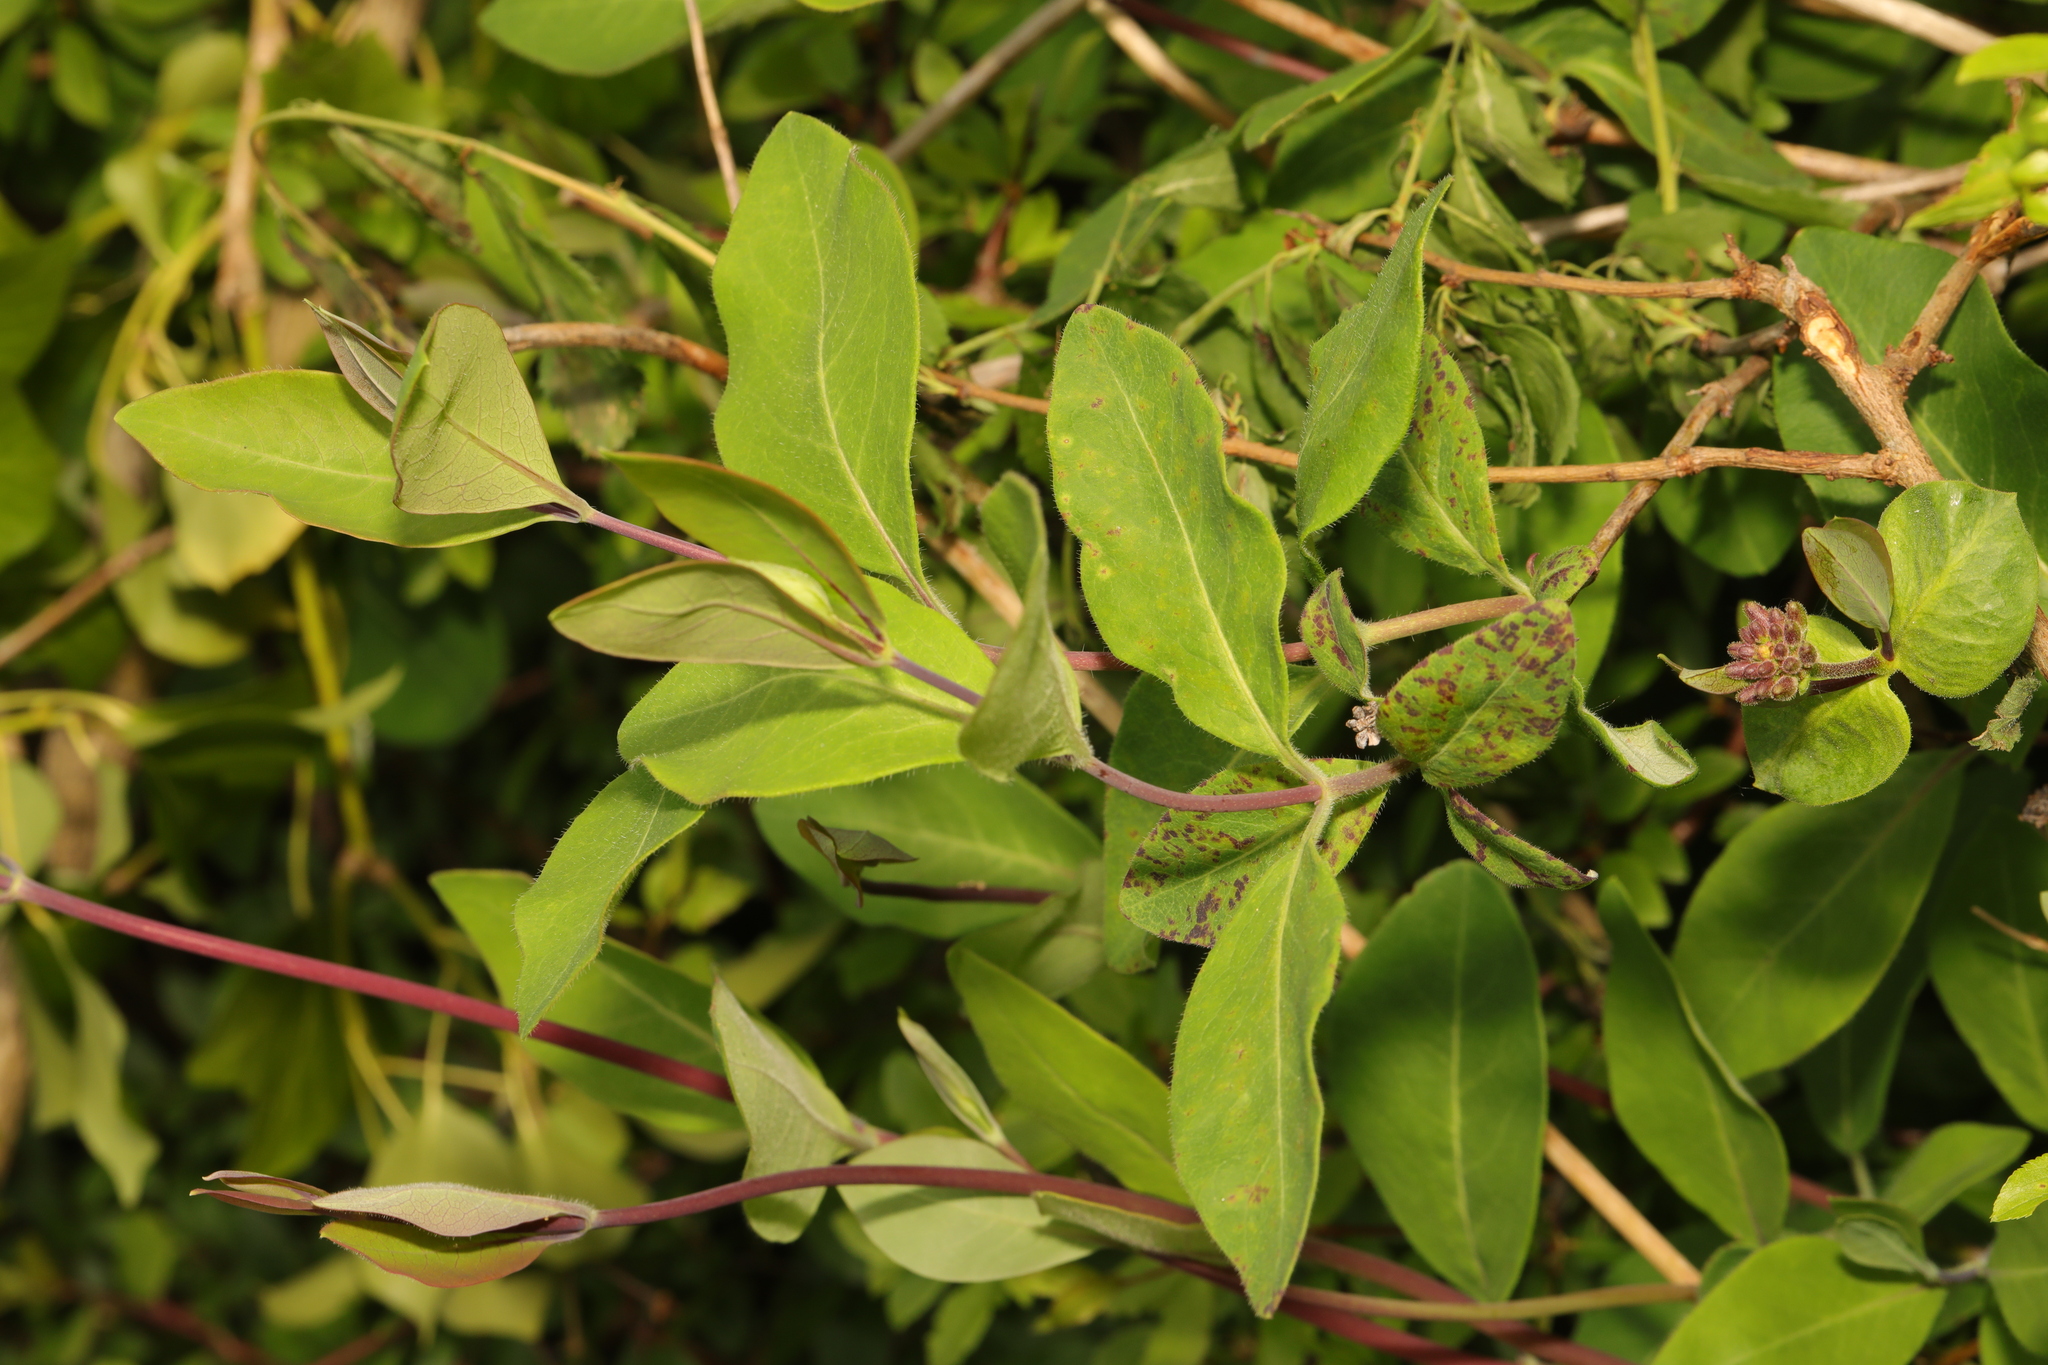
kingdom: Plantae
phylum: Tracheophyta
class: Magnoliopsida
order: Dipsacales
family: Caprifoliaceae
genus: Lonicera
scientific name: Lonicera periclymenum
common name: European honeysuckle
